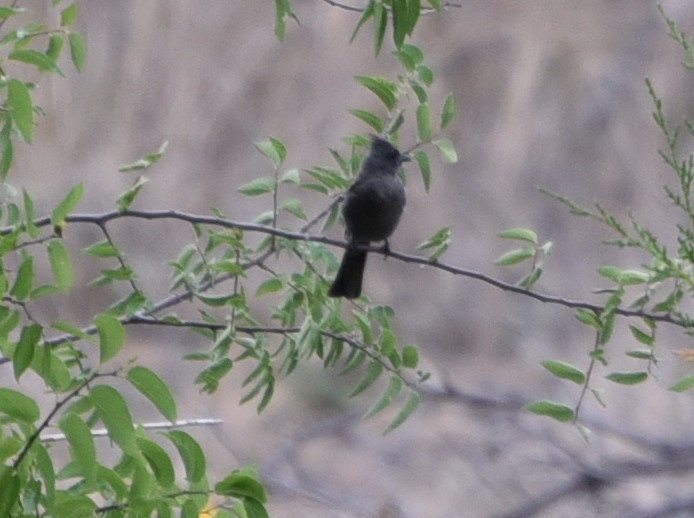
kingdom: Animalia
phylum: Chordata
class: Aves
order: Passeriformes
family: Ptilogonatidae
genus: Phainopepla
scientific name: Phainopepla nitens
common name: Phainopepla
